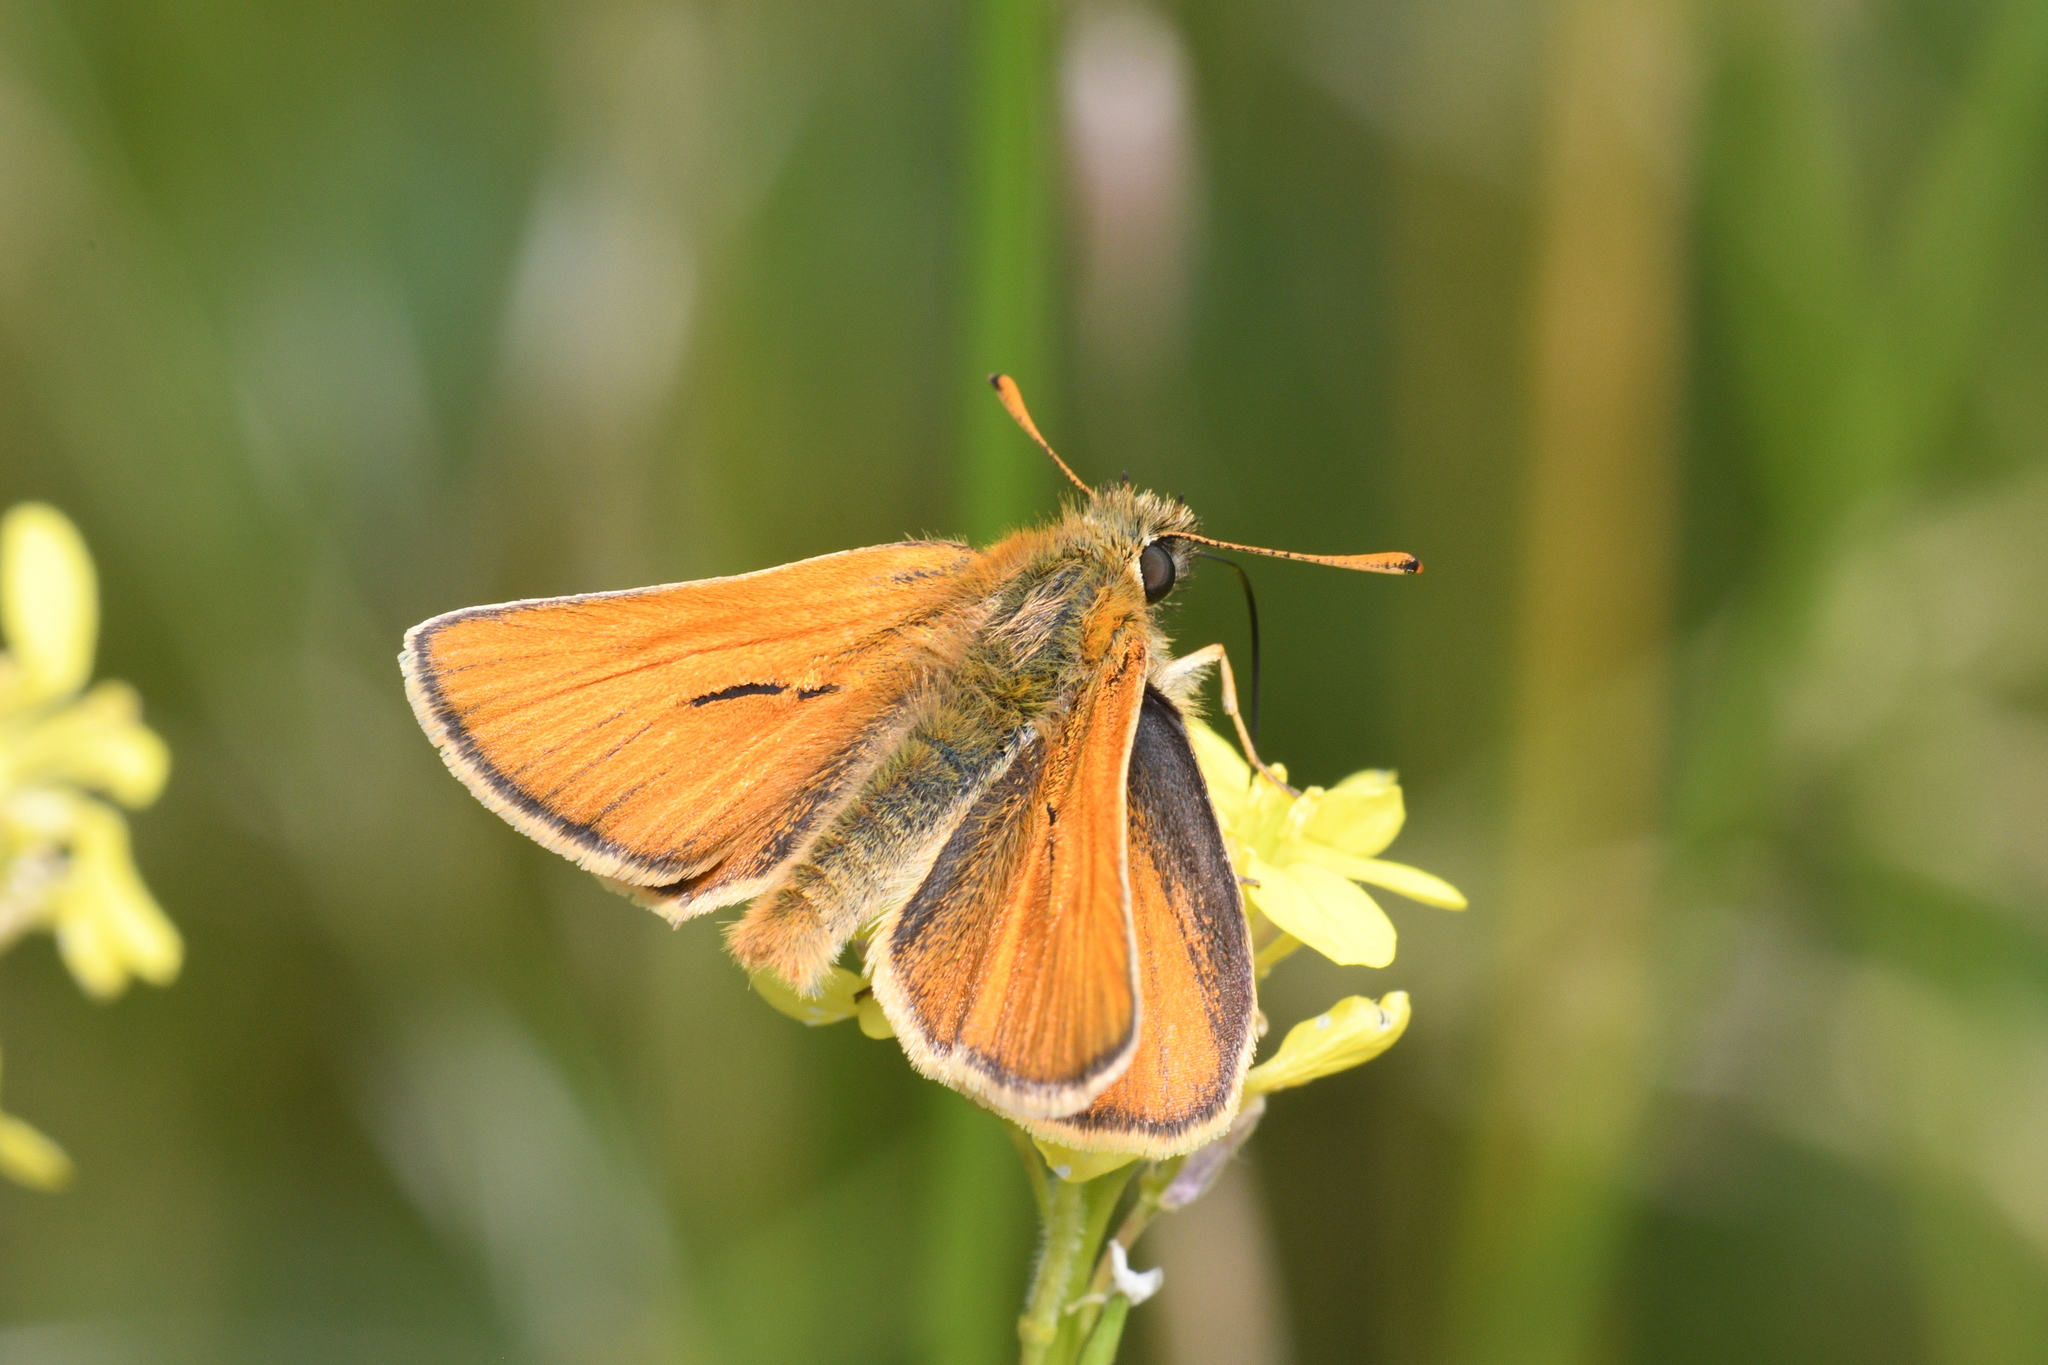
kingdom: Animalia
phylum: Arthropoda
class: Insecta
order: Lepidoptera
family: Hesperiidae
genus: Thymelicus
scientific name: Thymelicus sylvestris
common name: Small skipper
